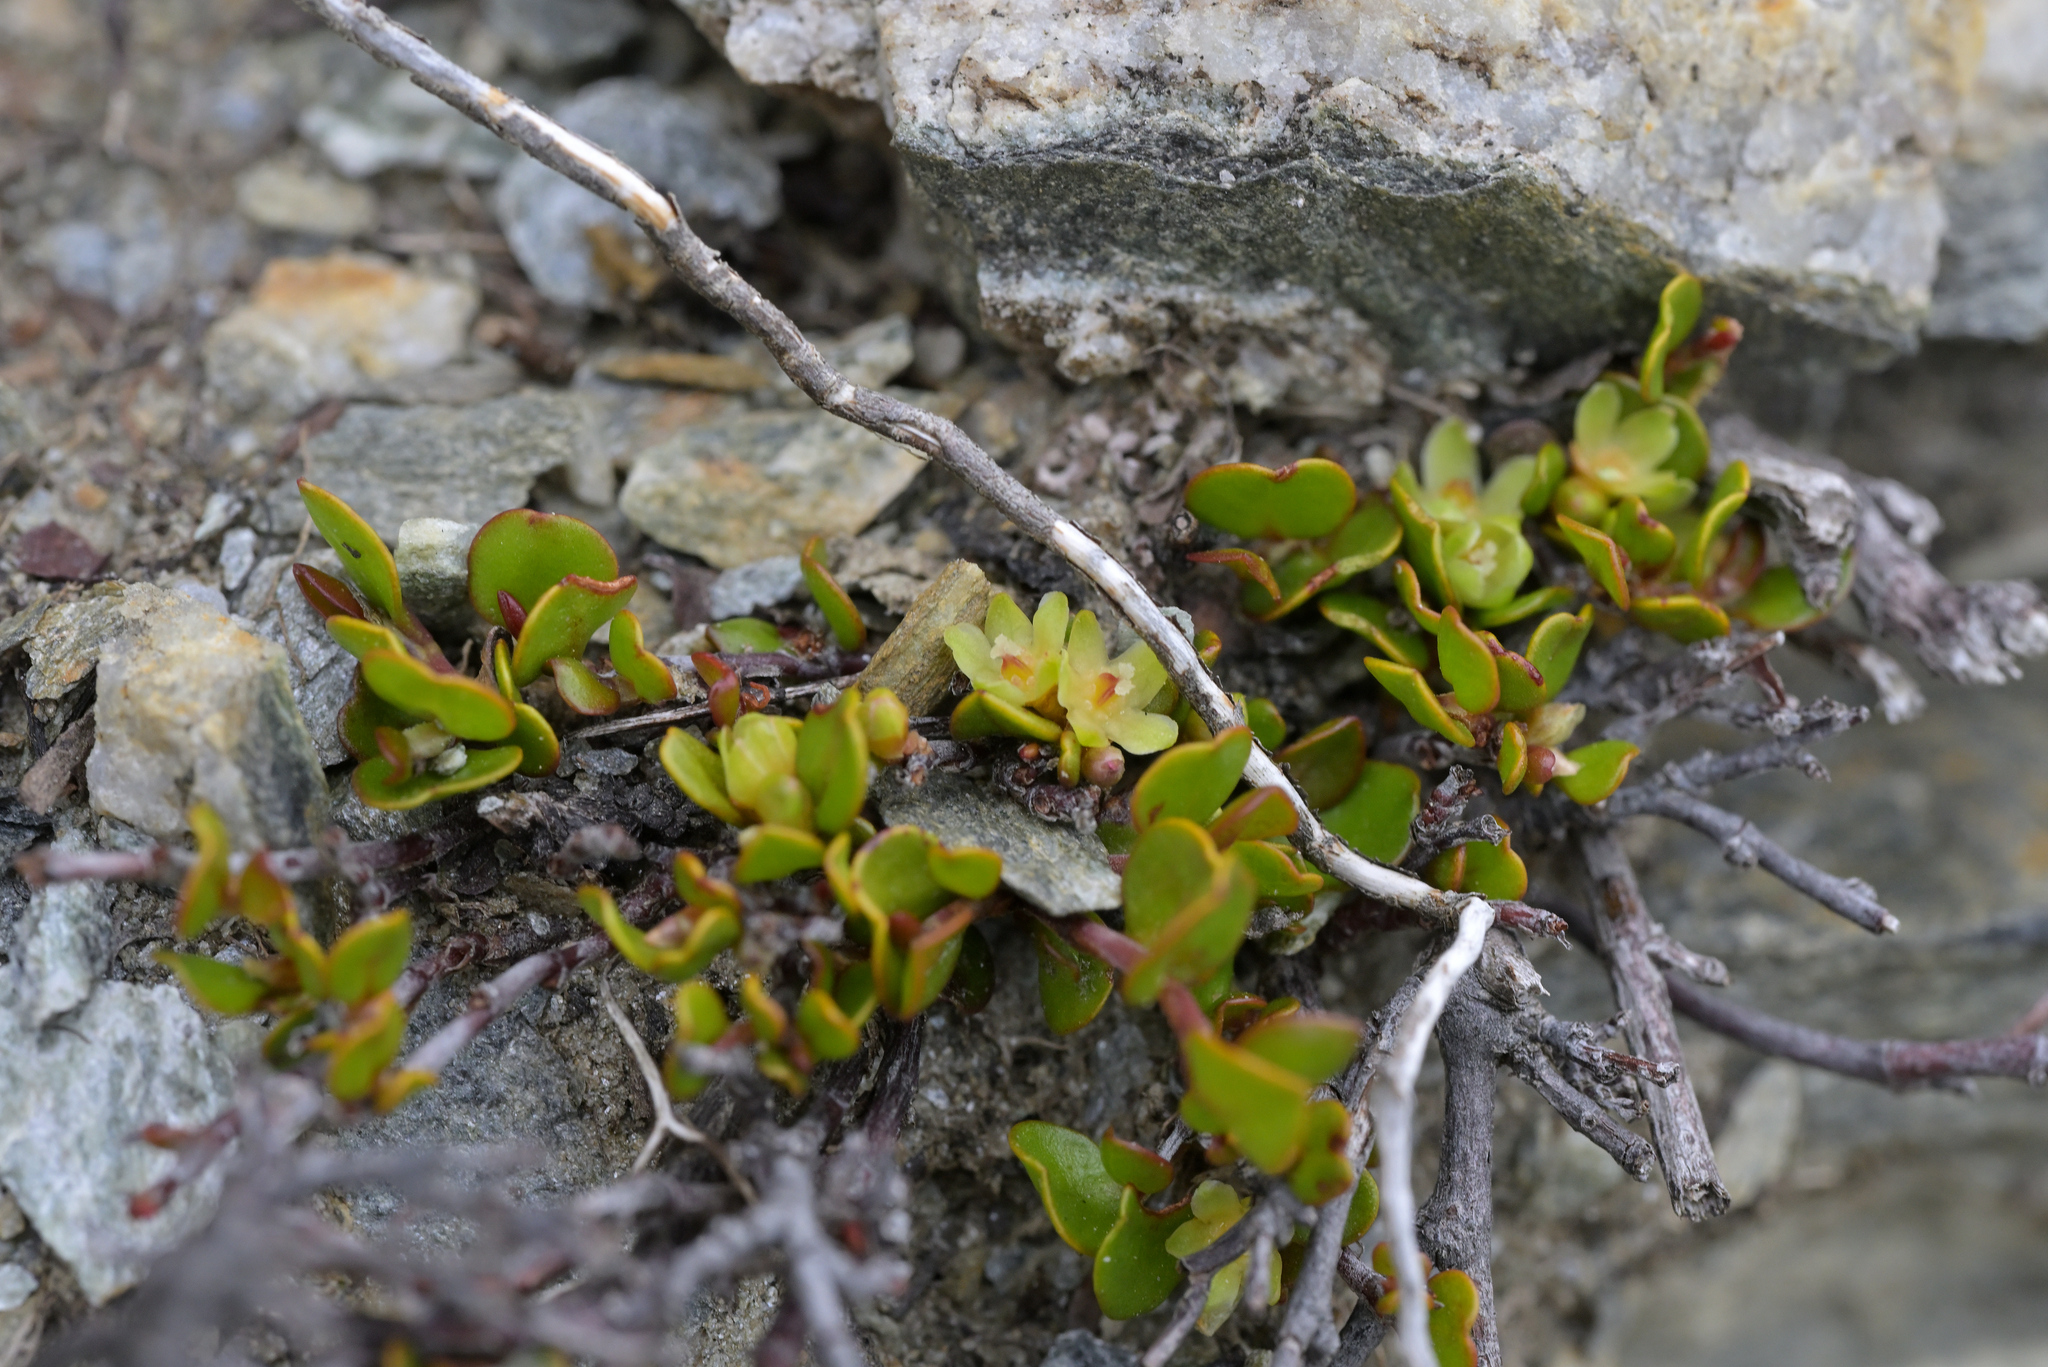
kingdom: Plantae
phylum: Tracheophyta
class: Magnoliopsida
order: Caryophyllales
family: Polygonaceae
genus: Muehlenbeckia
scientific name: Muehlenbeckia axillaris
